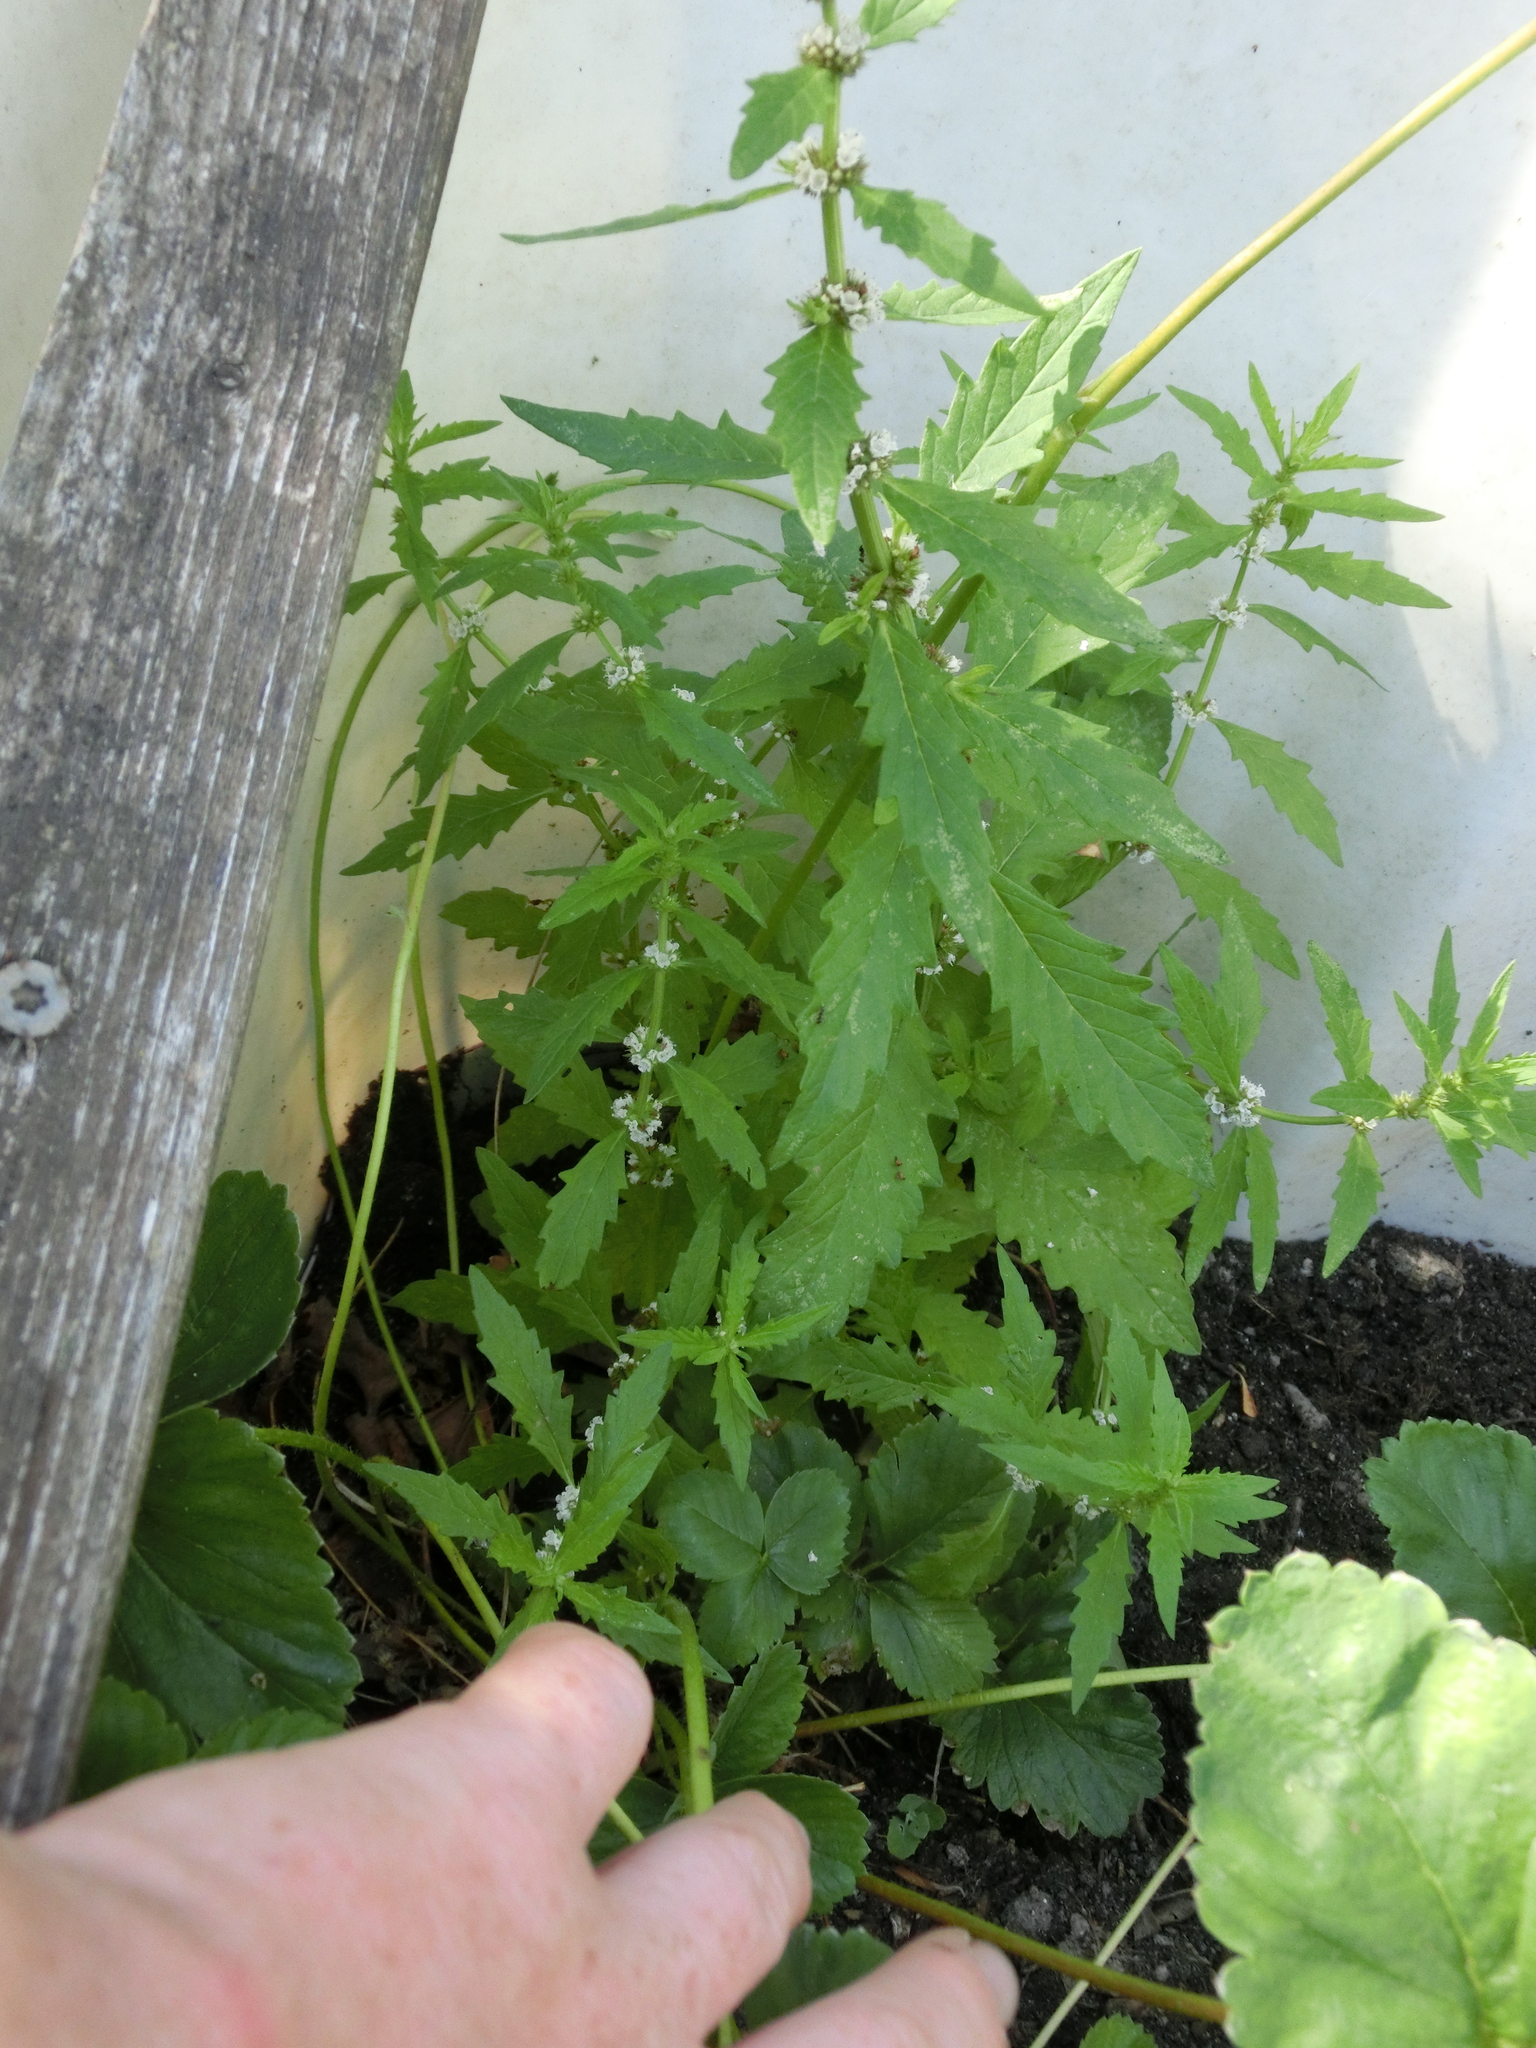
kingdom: Plantae
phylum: Tracheophyta
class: Magnoliopsida
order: Lamiales
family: Lamiaceae
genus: Lycopus
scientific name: Lycopus europaeus
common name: European bugleweed
